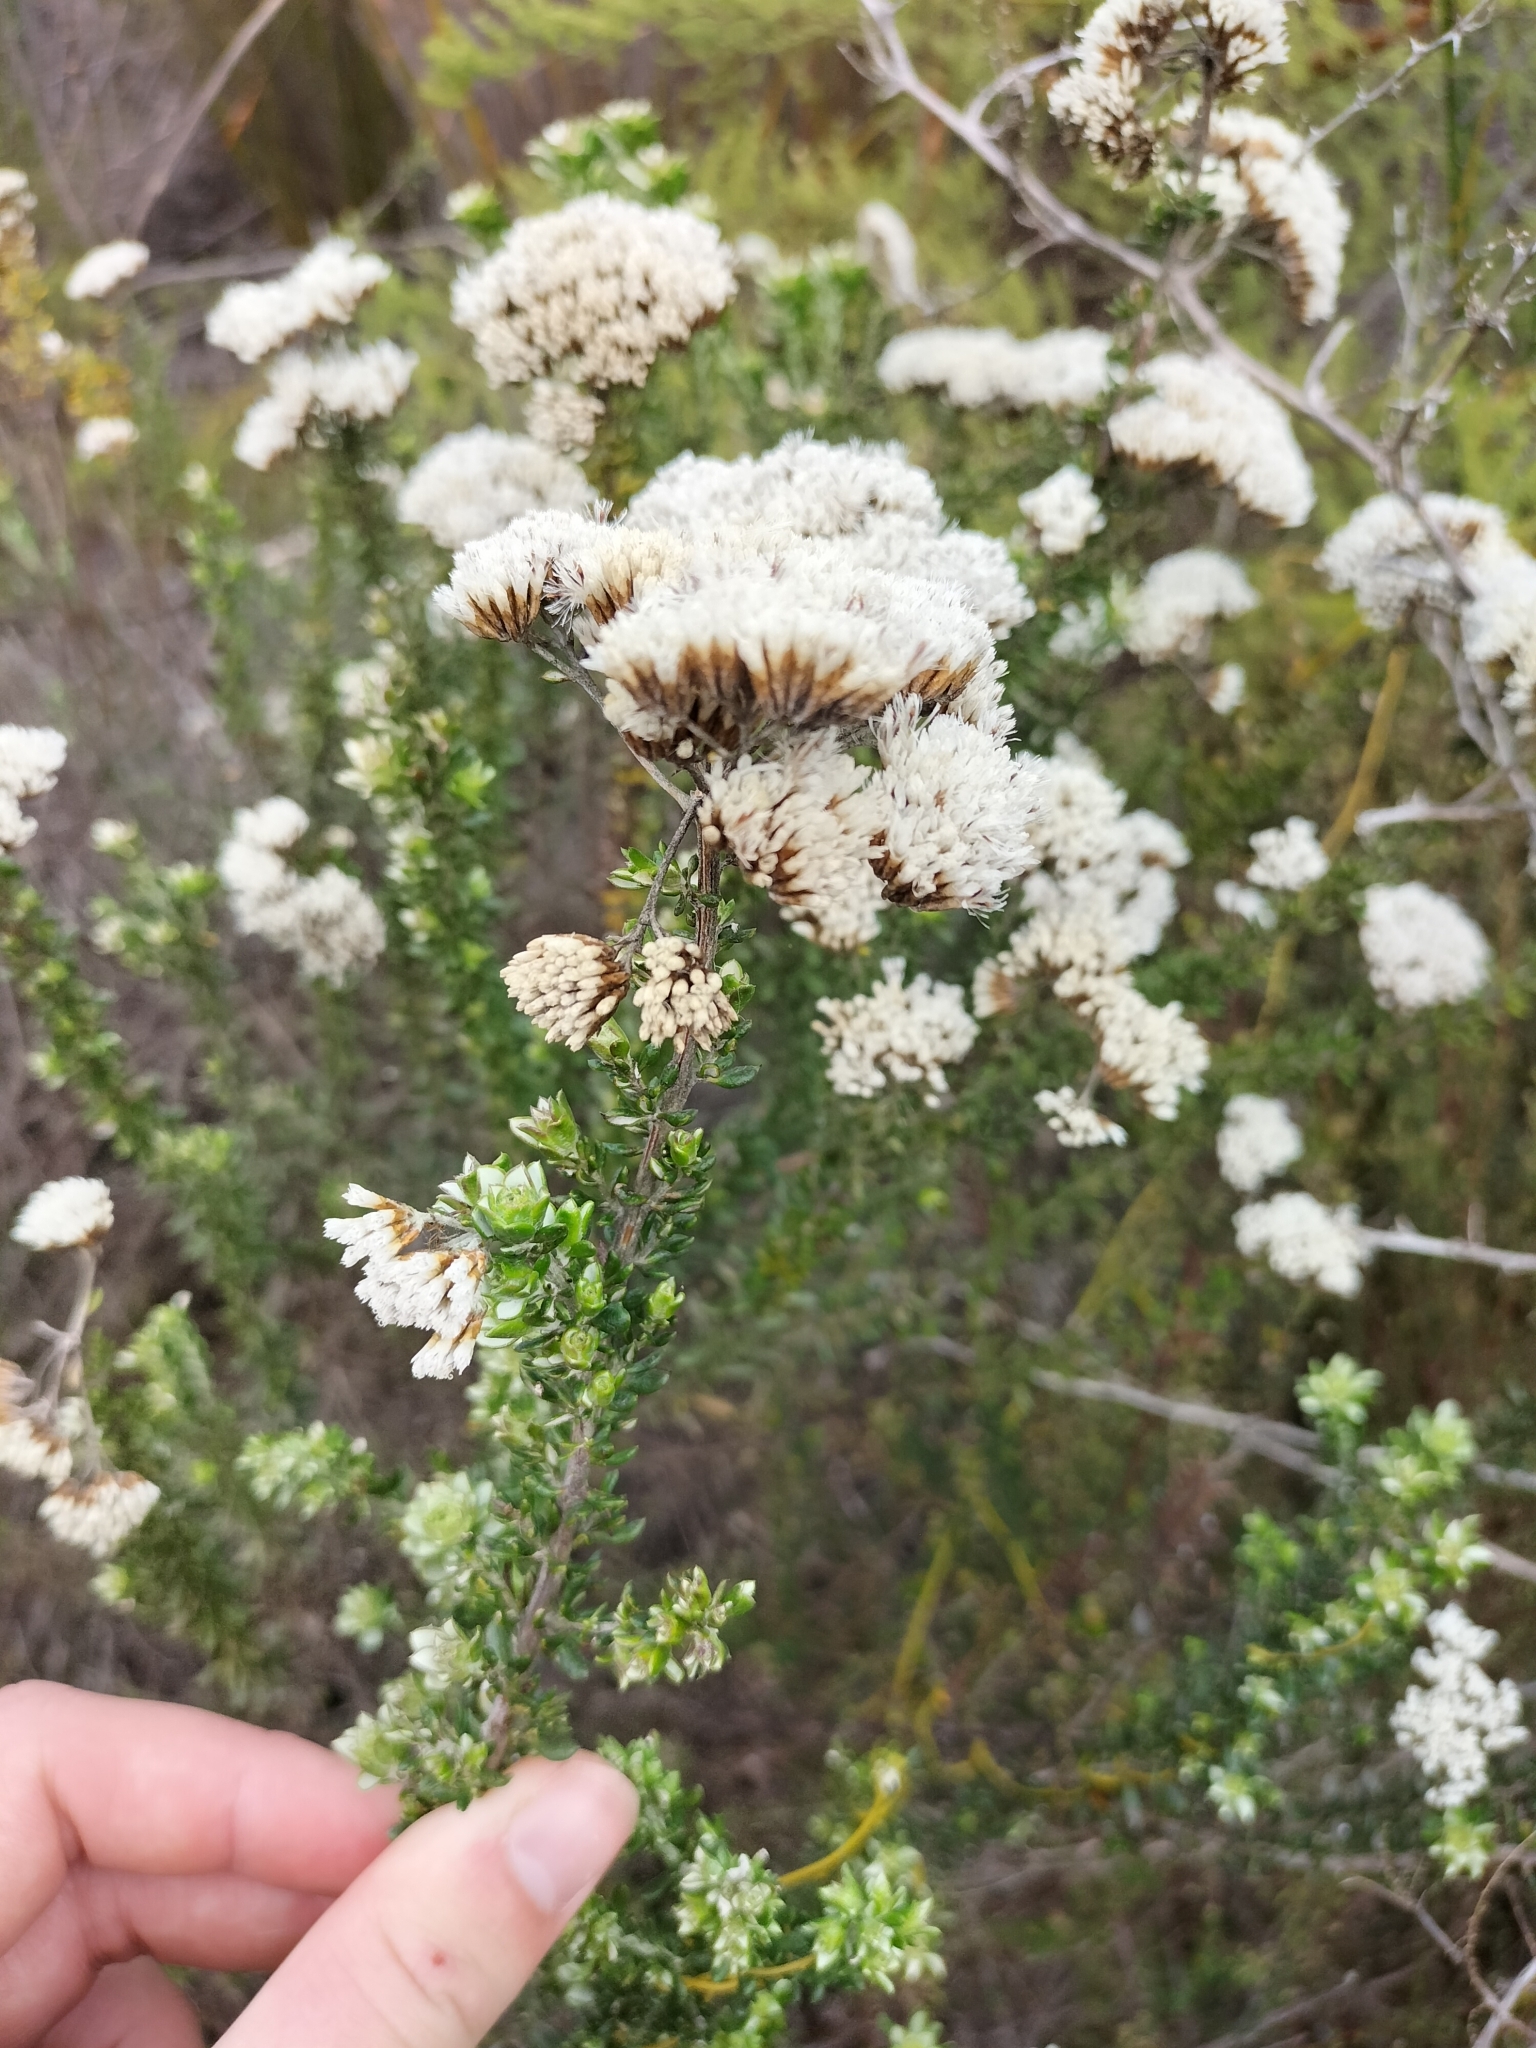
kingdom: Plantae
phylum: Tracheophyta
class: Magnoliopsida
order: Asterales
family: Asteraceae
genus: Metalasia
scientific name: Metalasia densa
